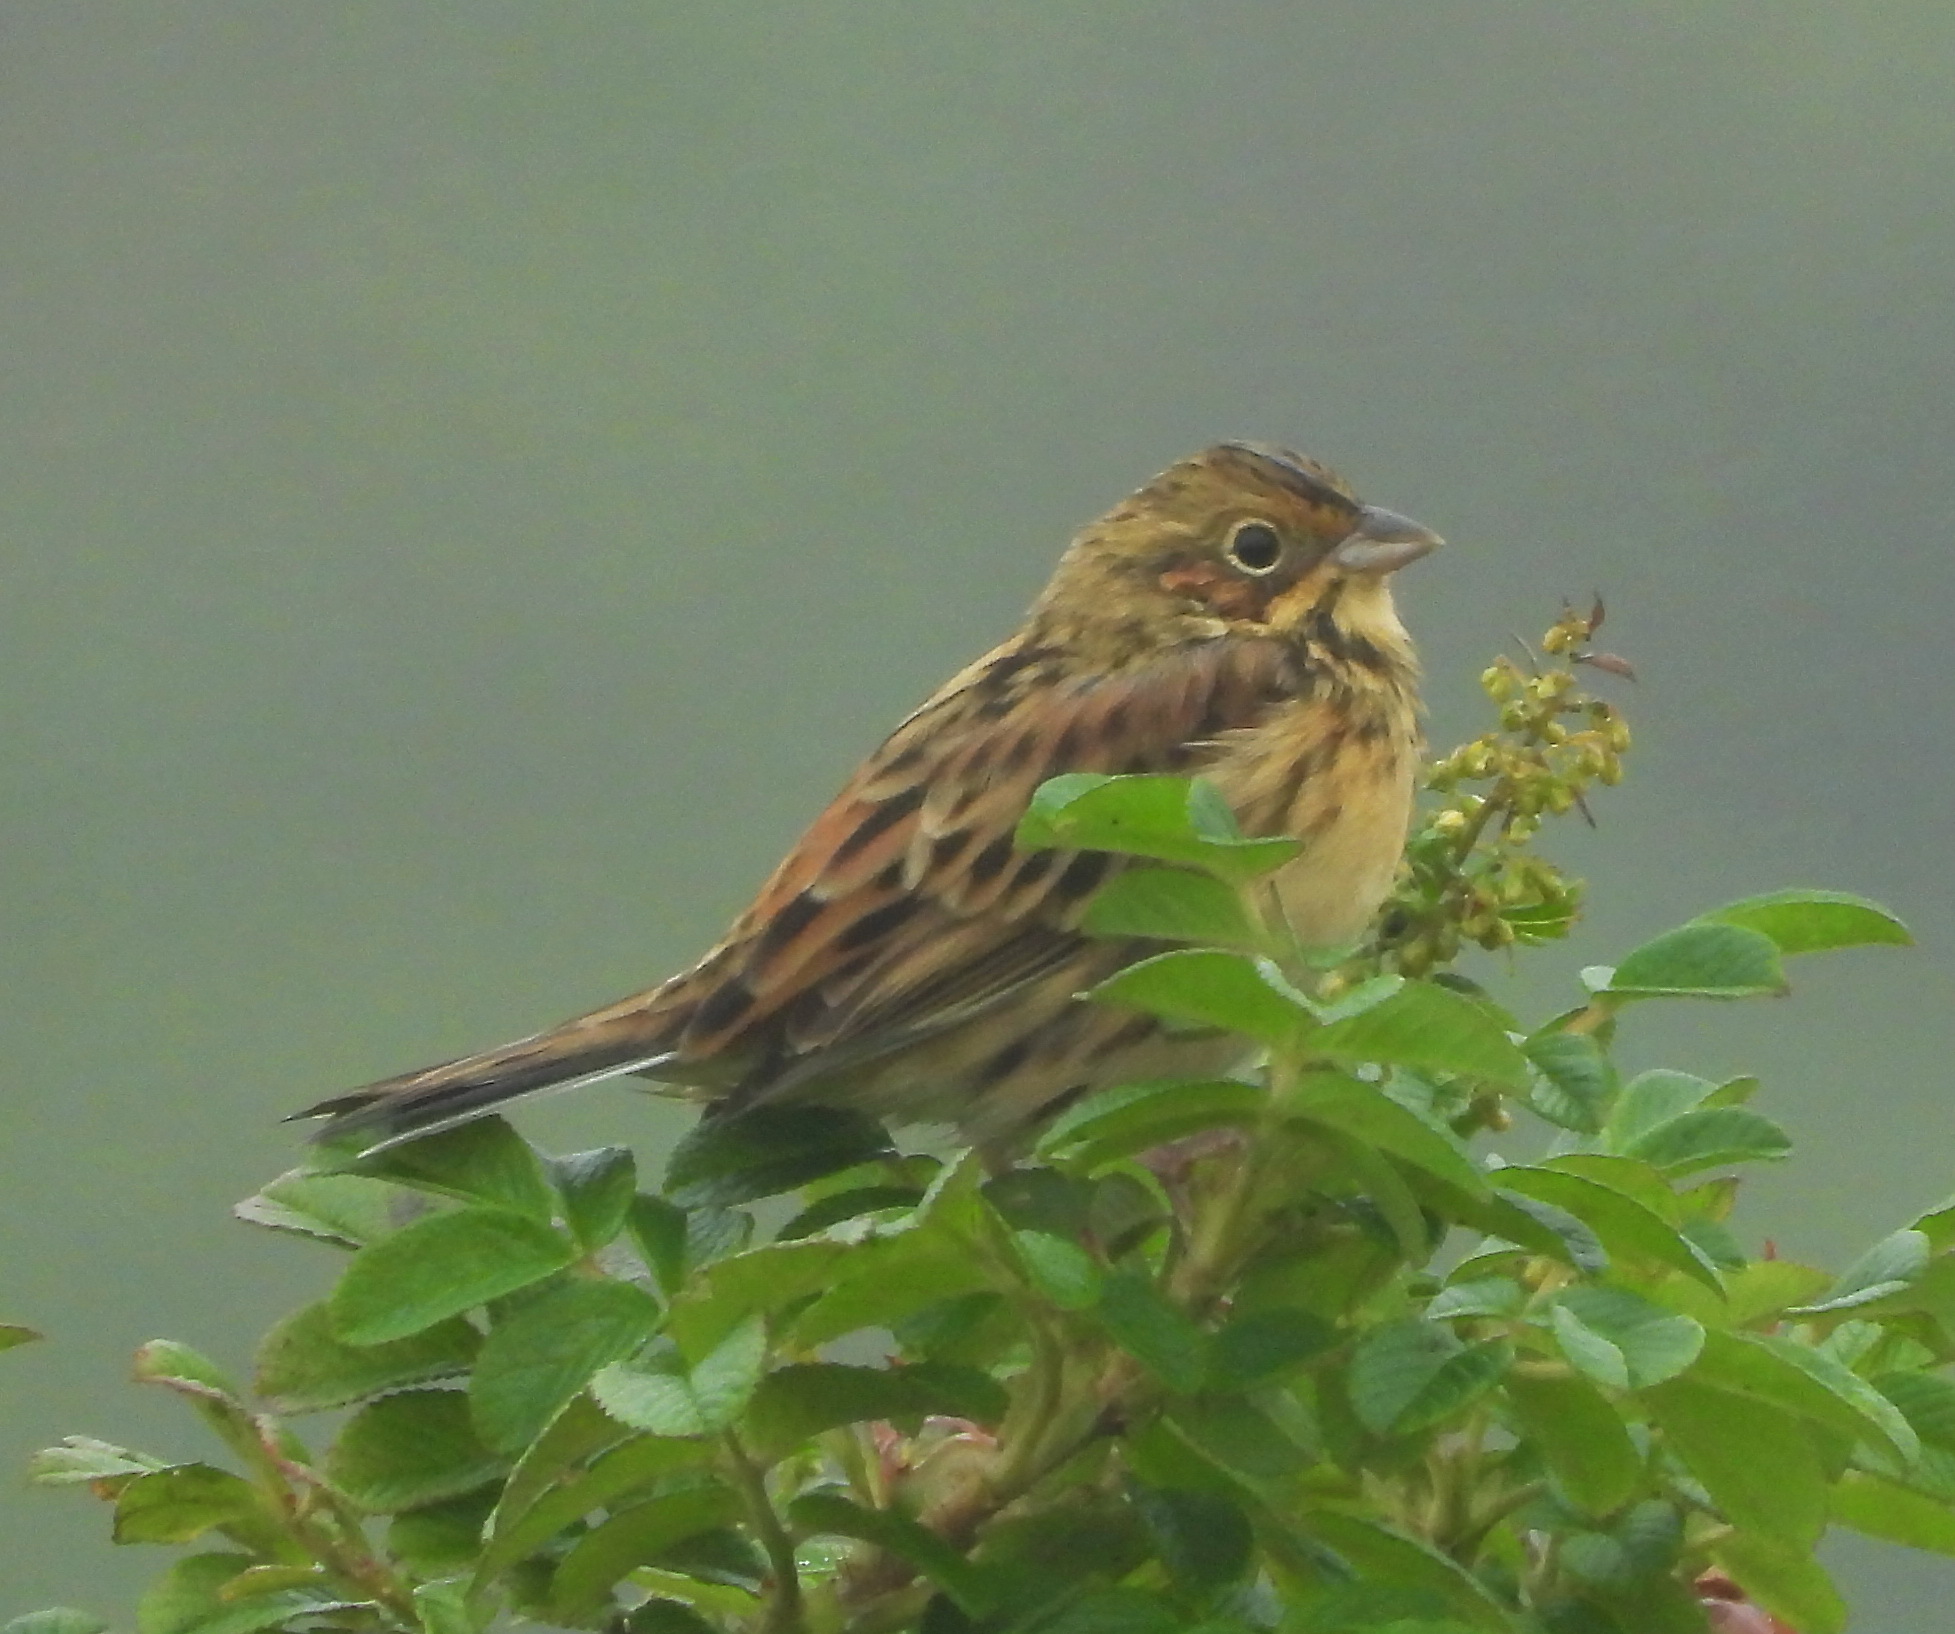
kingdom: Animalia
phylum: Chordata
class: Aves
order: Passeriformes
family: Emberizidae
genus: Emberiza
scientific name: Emberiza fucata
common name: Chestnut-eared bunting
